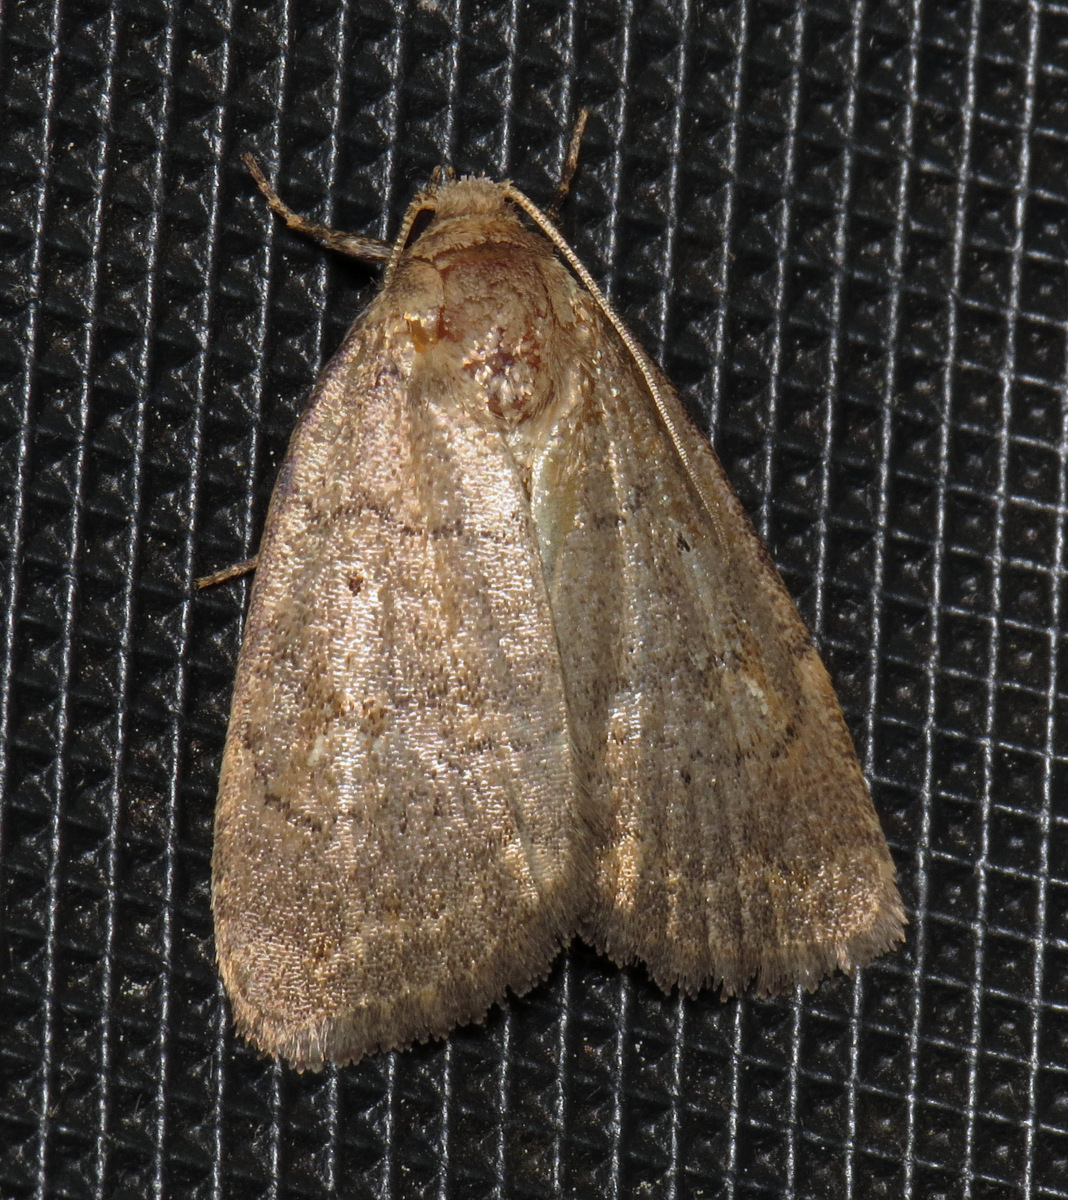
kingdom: Animalia
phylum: Arthropoda
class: Insecta
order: Lepidoptera
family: Noctuidae
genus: Athetis
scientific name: Athetis tarda
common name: Slowpoke moth
